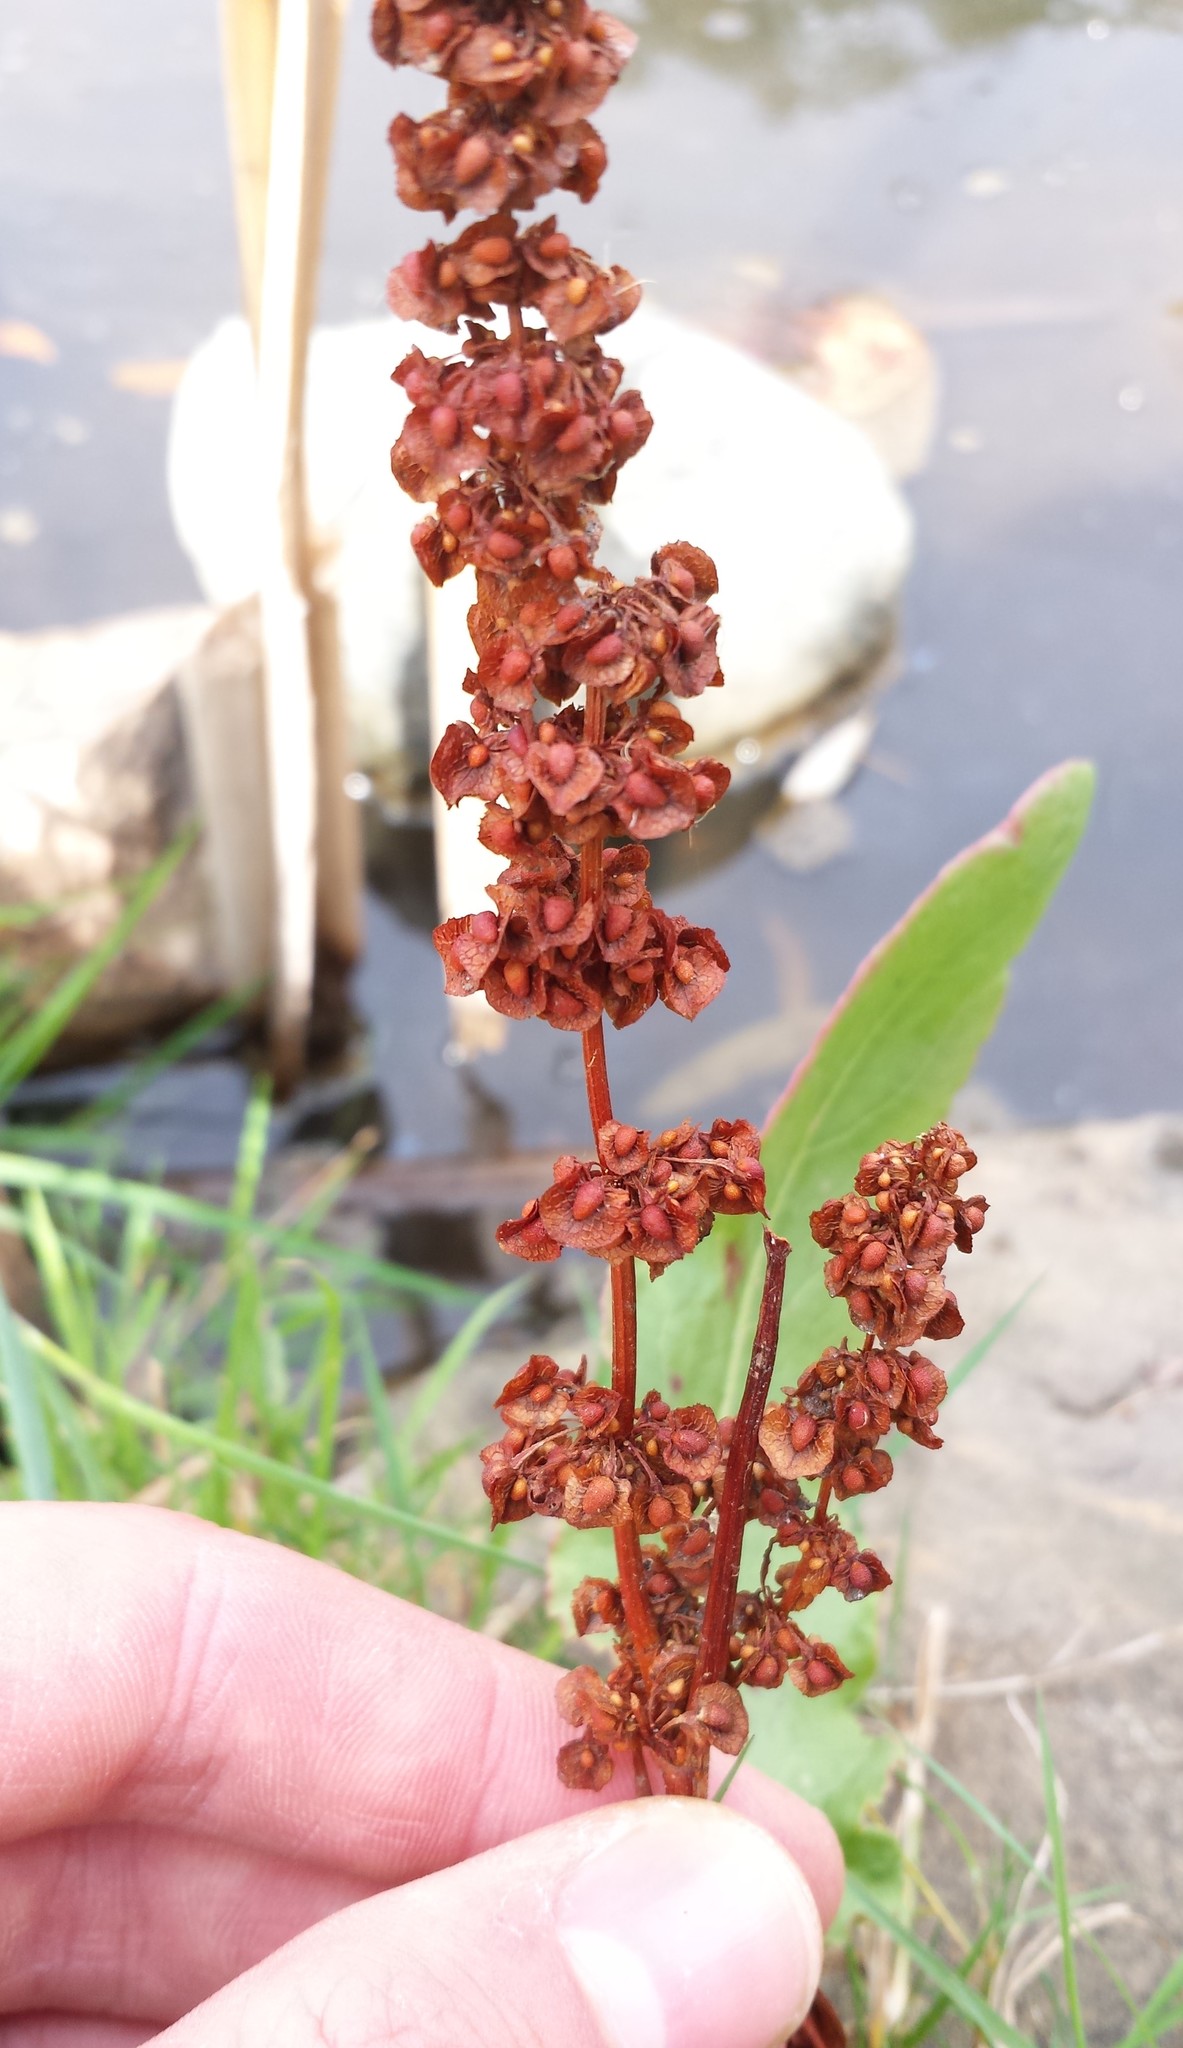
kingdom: Plantae
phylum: Tracheophyta
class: Magnoliopsida
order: Caryophyllales
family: Polygonaceae
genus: Rumex
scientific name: Rumex crispus
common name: Curled dock
